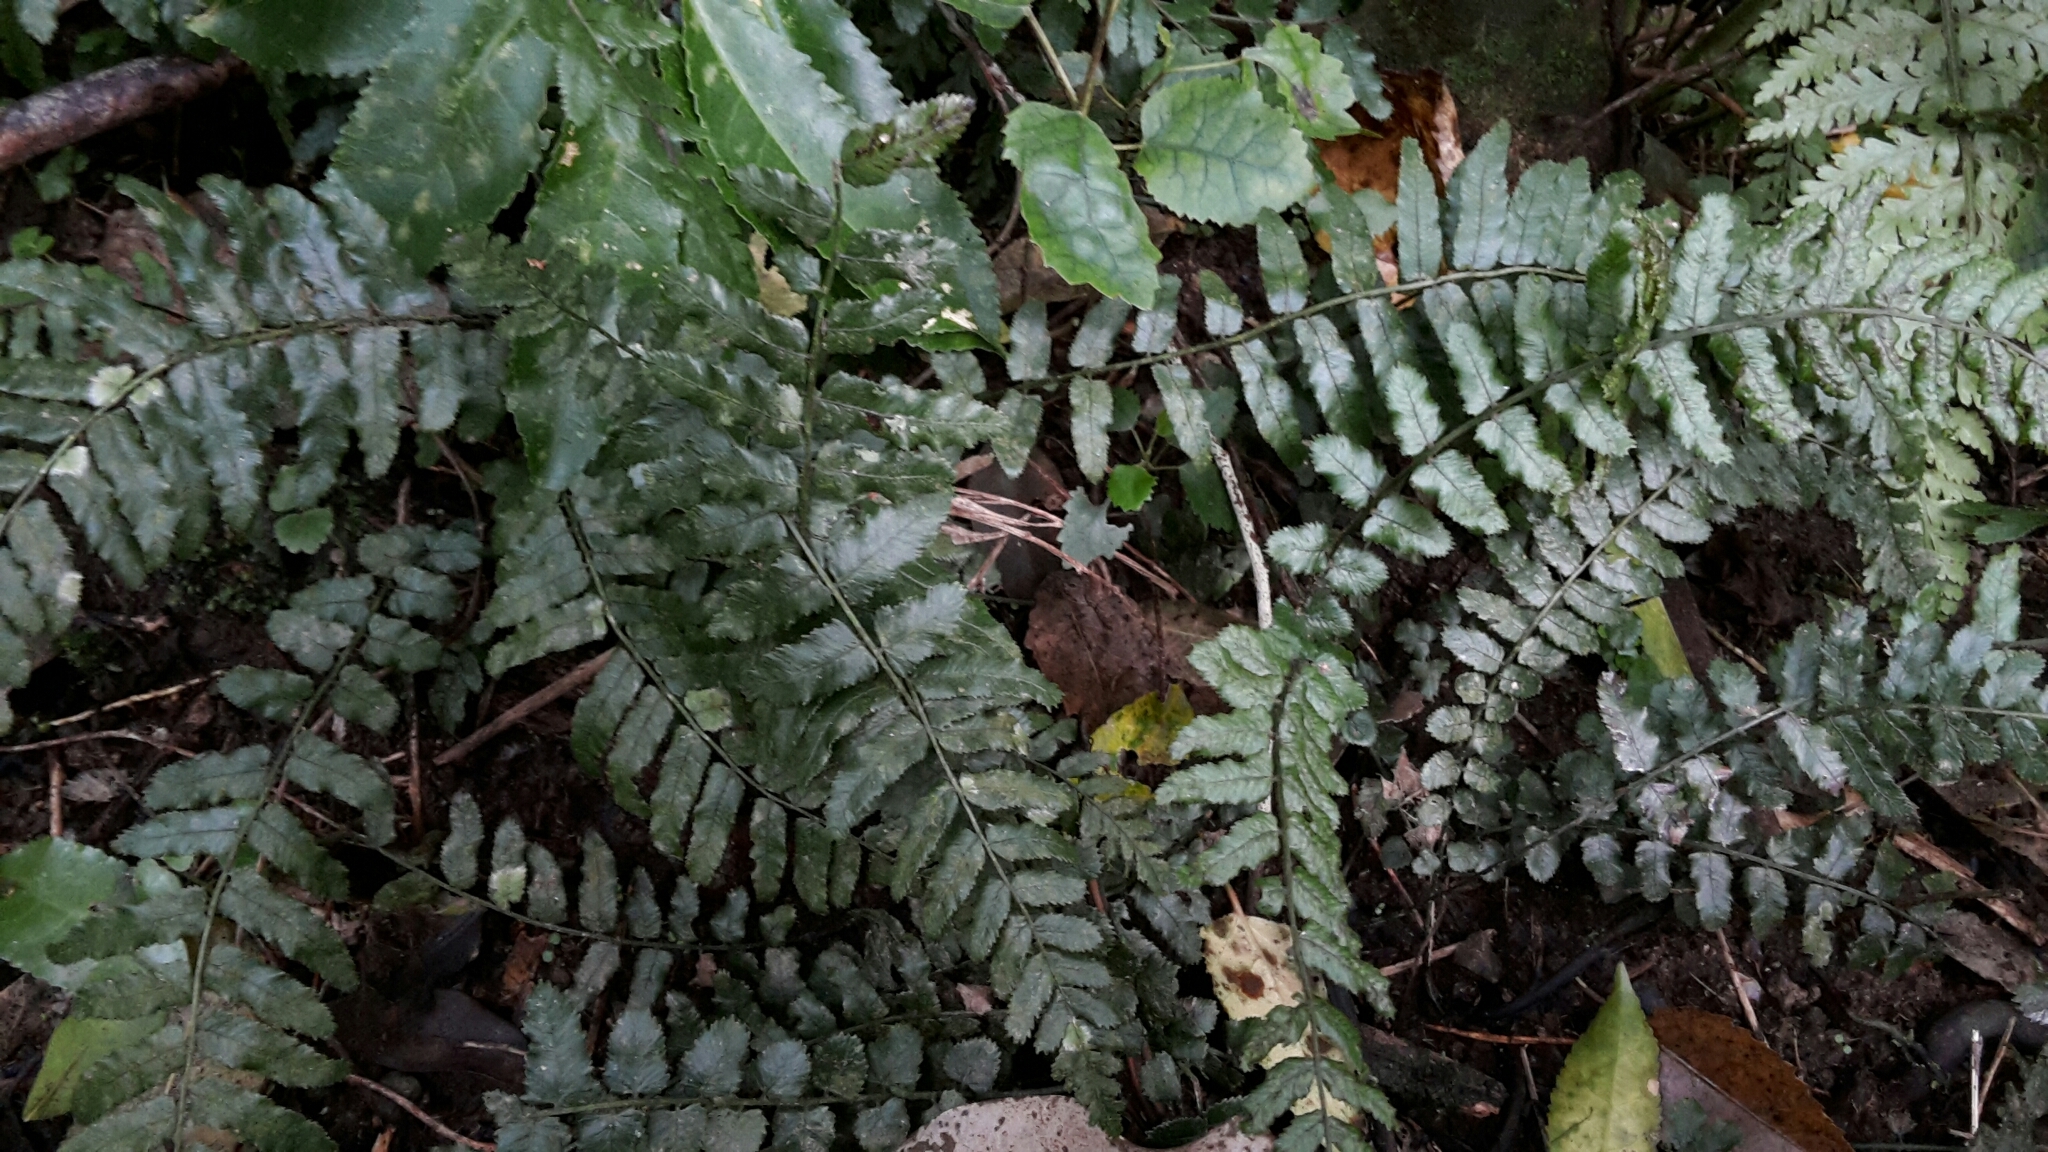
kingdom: Plantae
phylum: Tracheophyta
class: Polypodiopsida
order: Polypodiales
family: Blechnaceae
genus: Icarus
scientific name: Icarus filiformis
